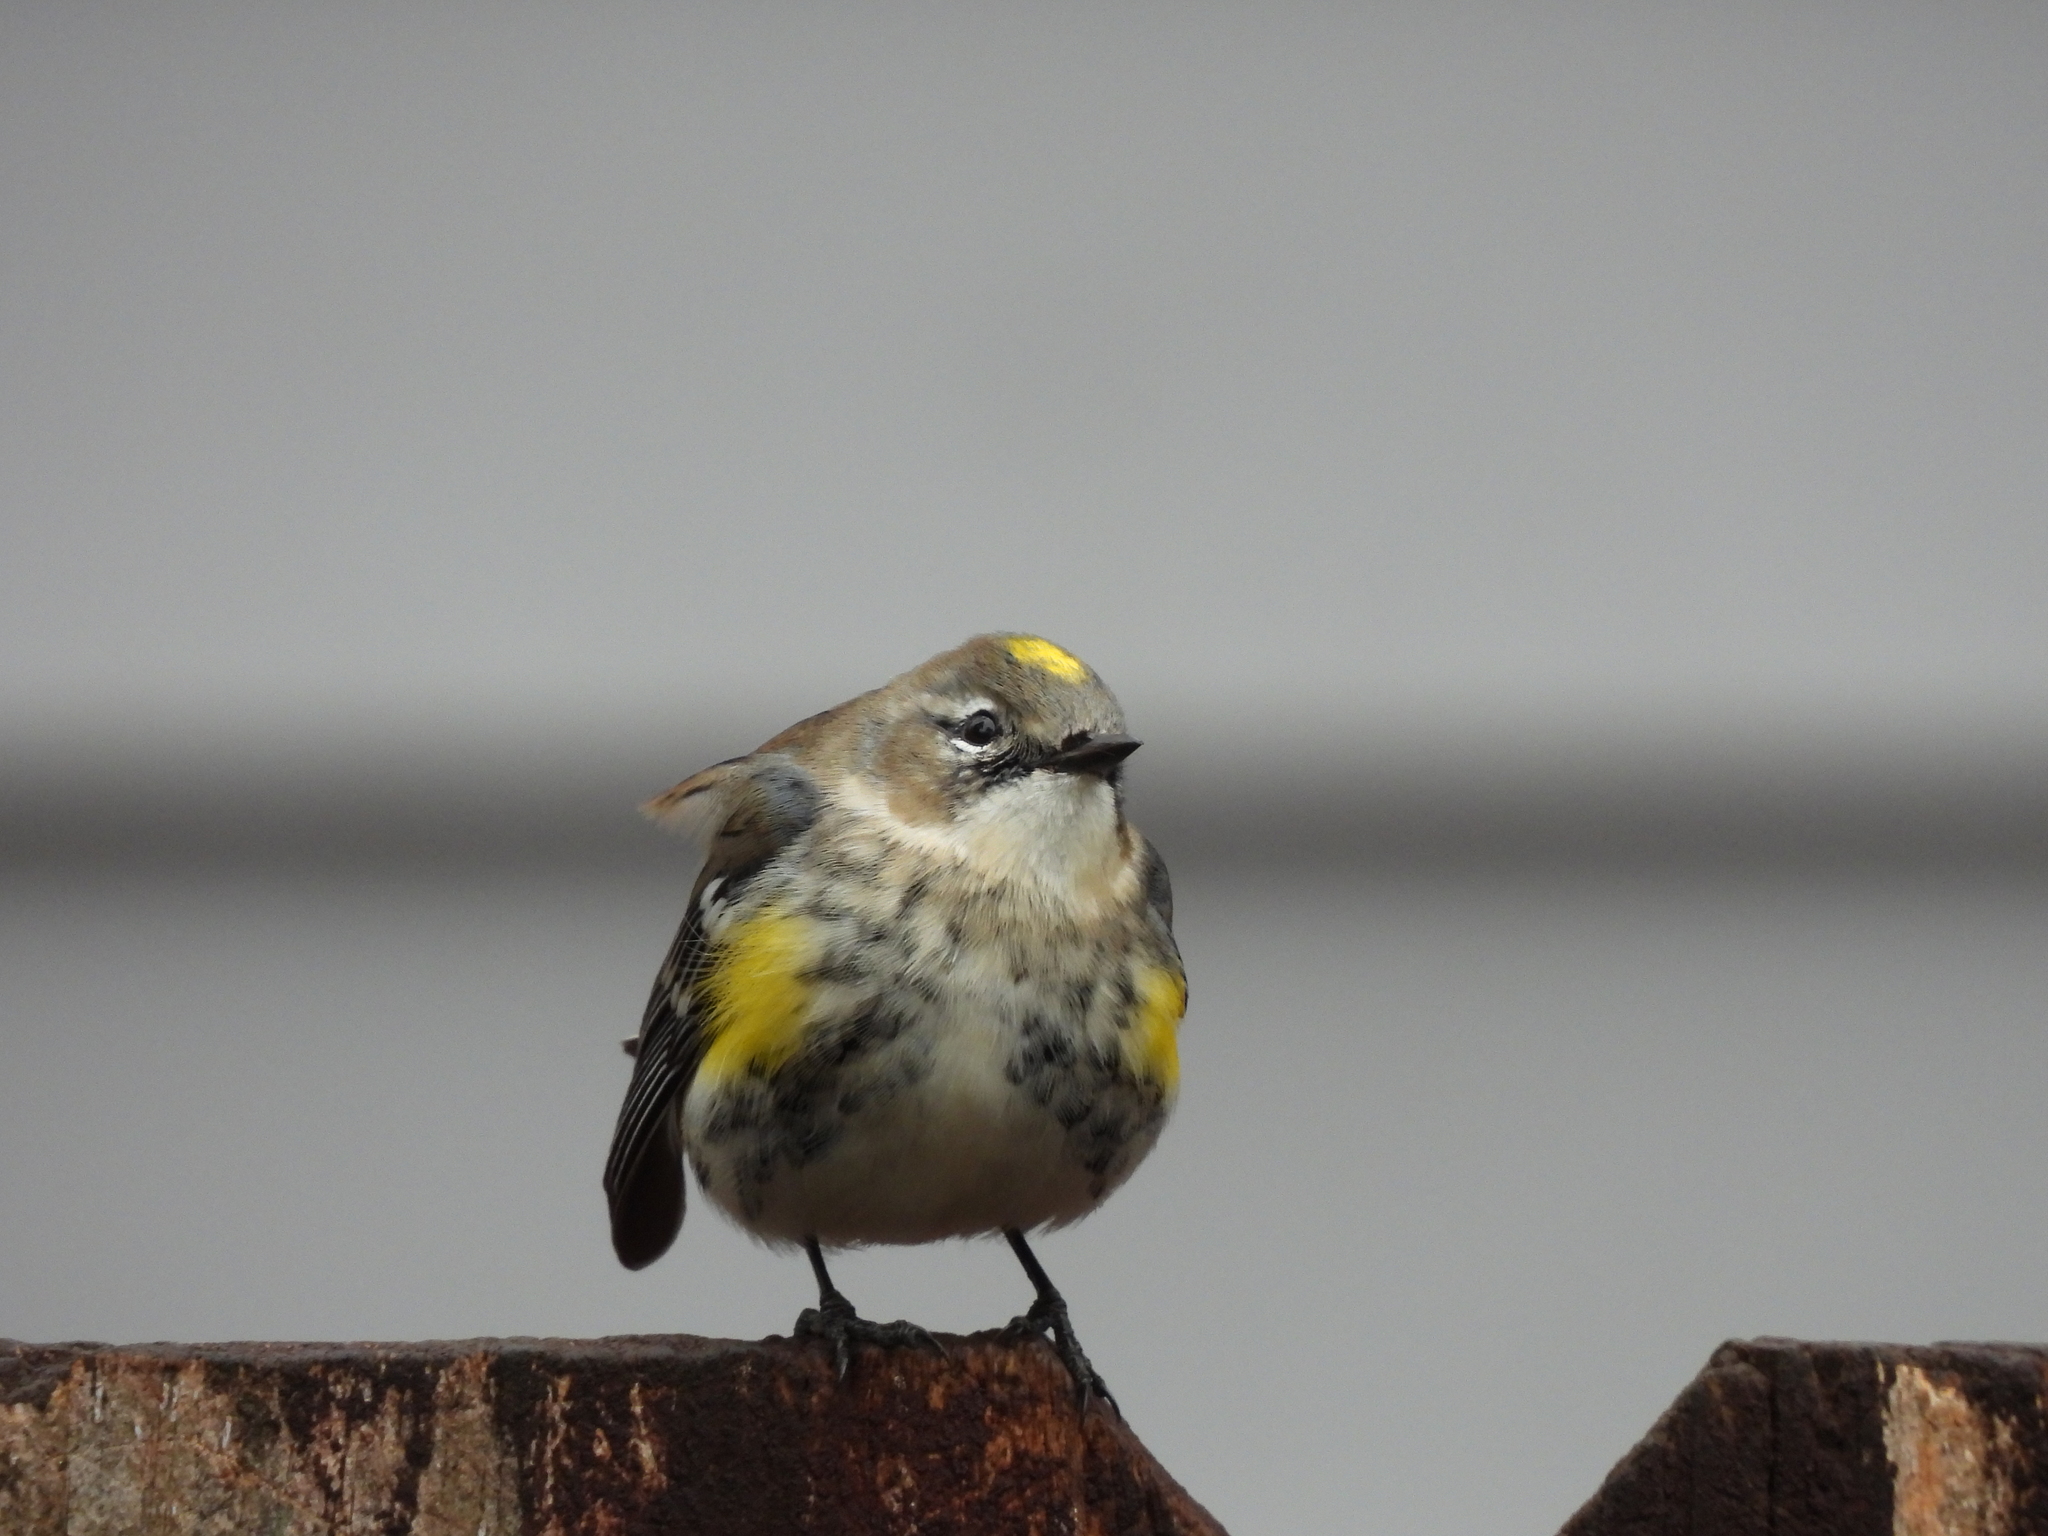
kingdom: Animalia
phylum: Chordata
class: Aves
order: Passeriformes
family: Parulidae
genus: Setophaga
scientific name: Setophaga coronata
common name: Myrtle warbler
